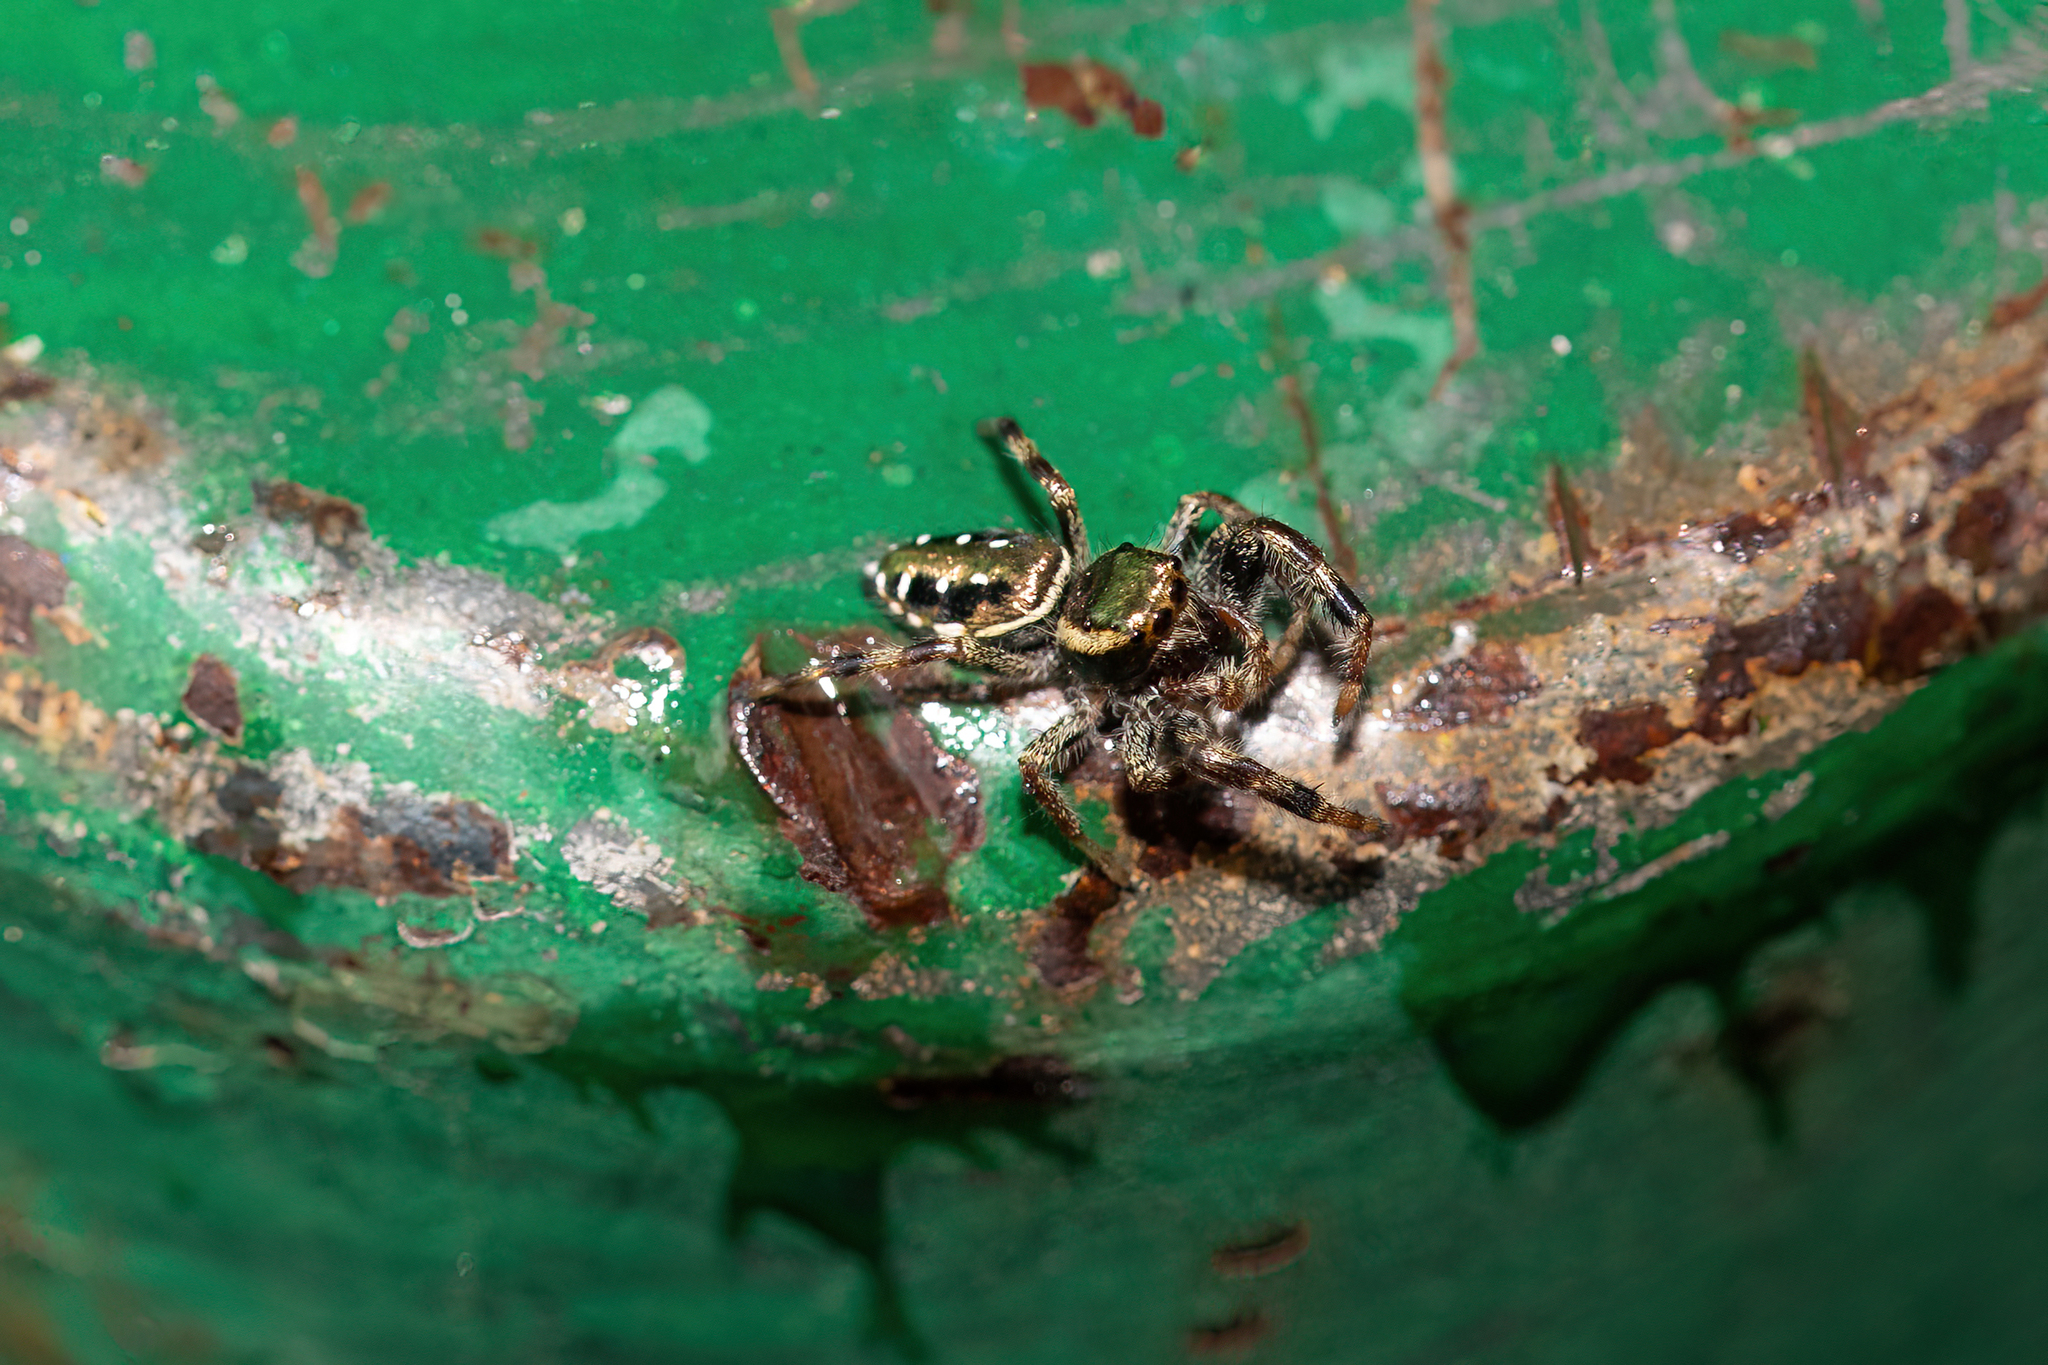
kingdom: Animalia
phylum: Arthropoda
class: Arachnida
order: Araneae
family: Salticidae
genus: Paraphidippus
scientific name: Paraphidippus aurantius
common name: Jumping spiders
